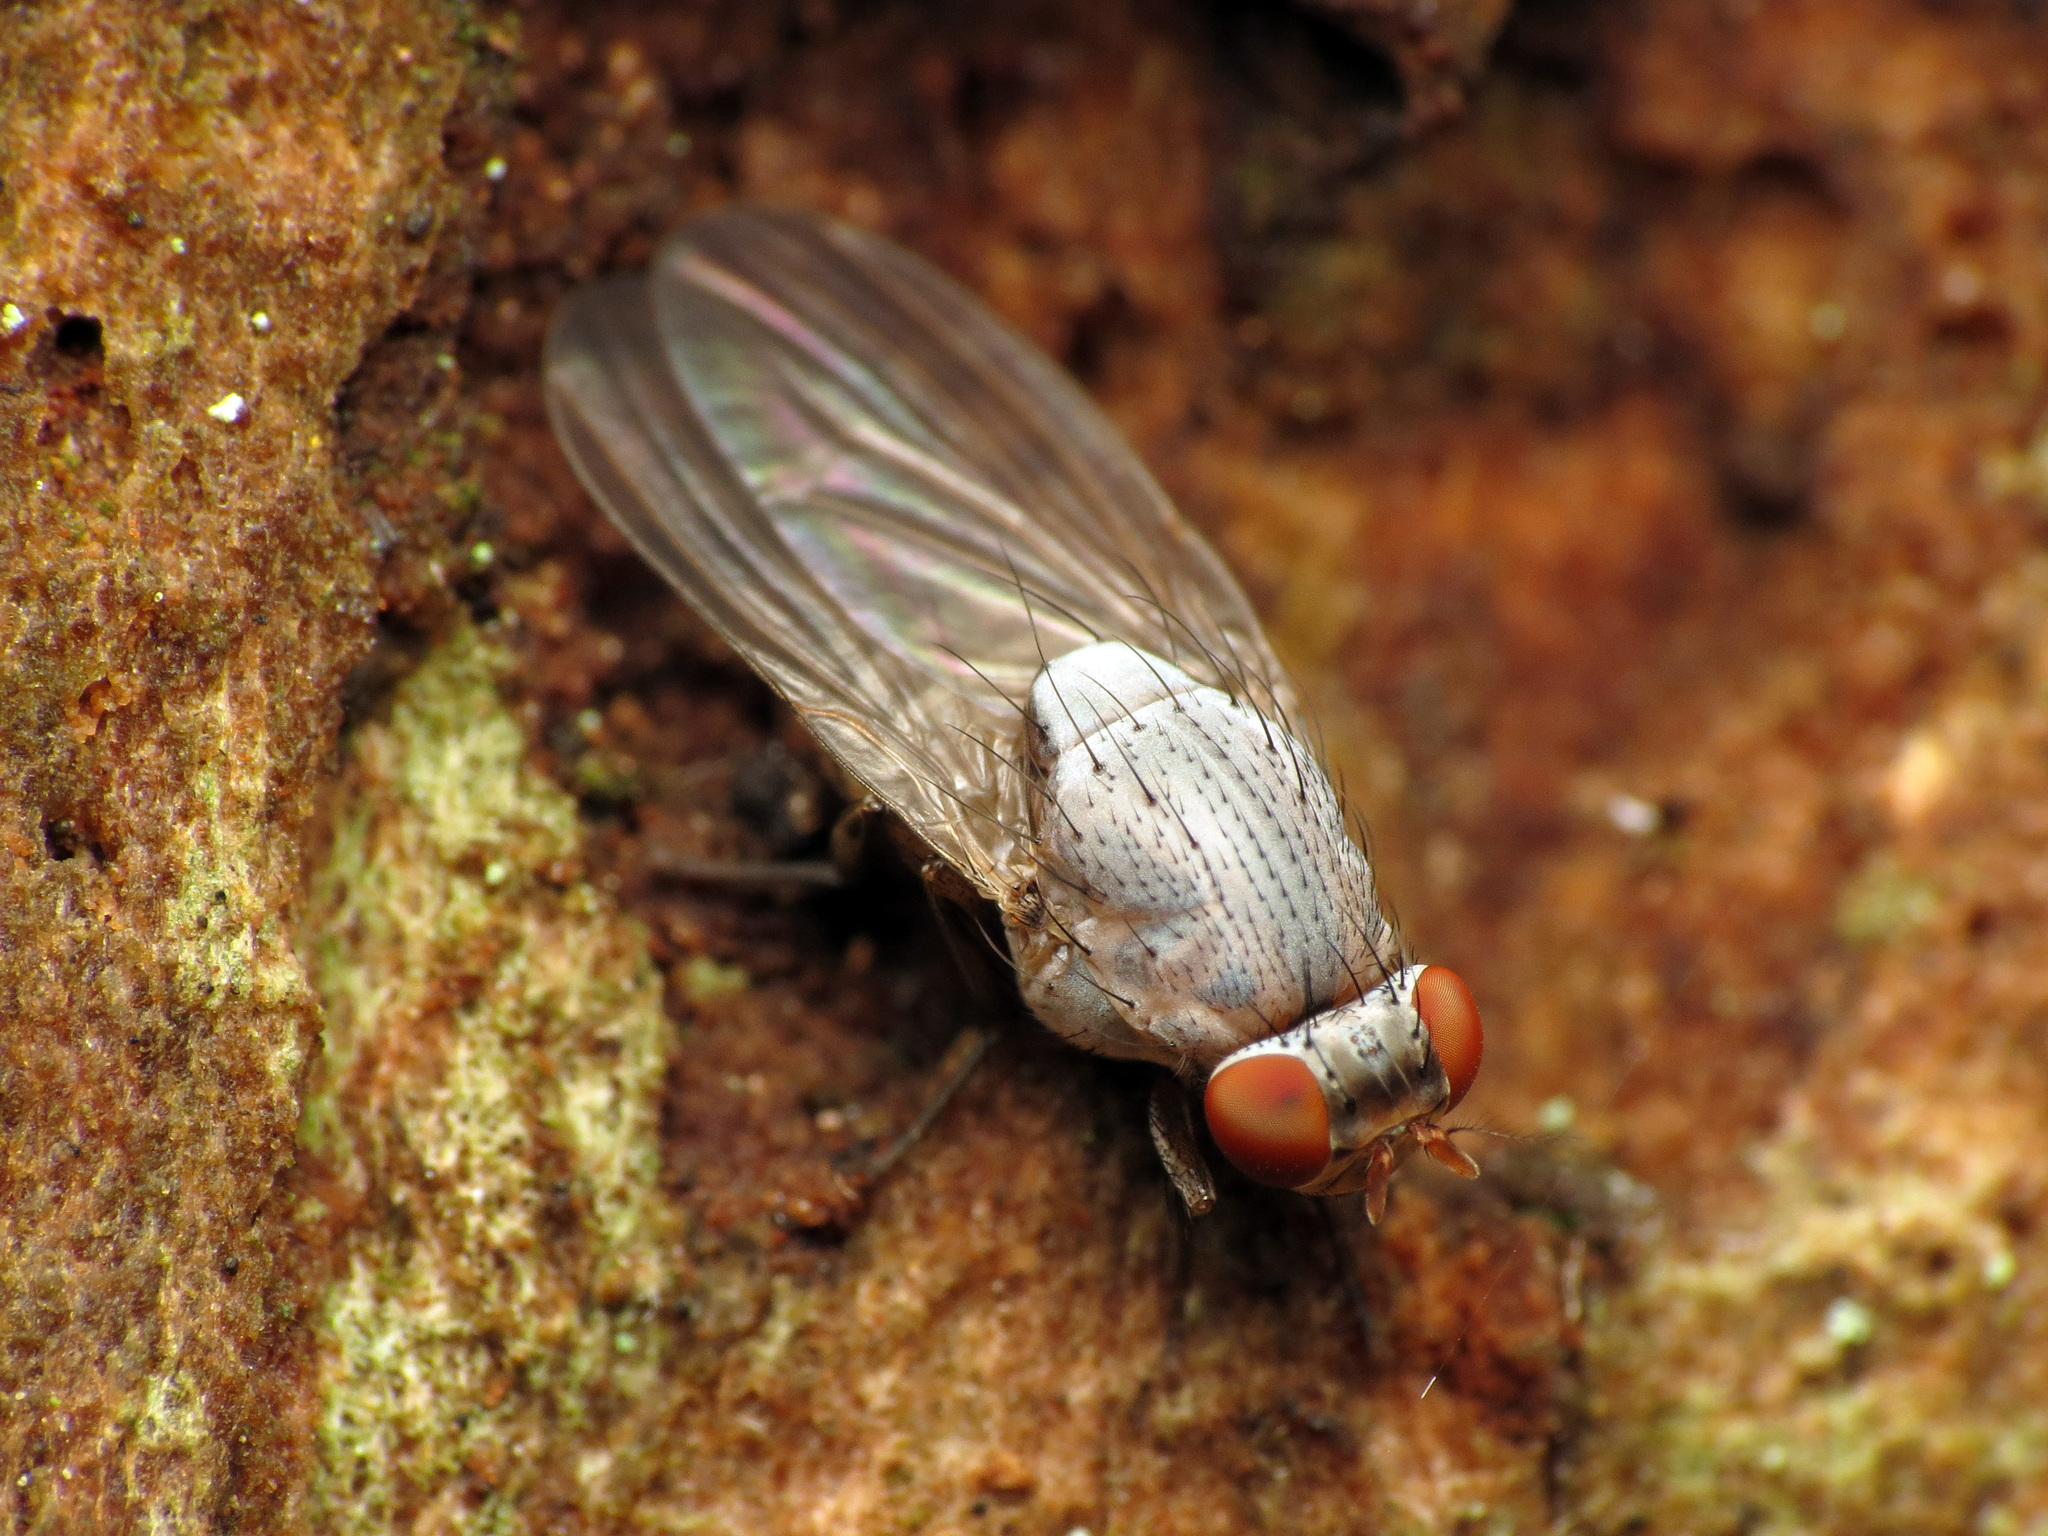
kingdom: Animalia
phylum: Arthropoda
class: Insecta
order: Diptera
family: Lauxaniidae
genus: Minettia
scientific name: Minettia magna
